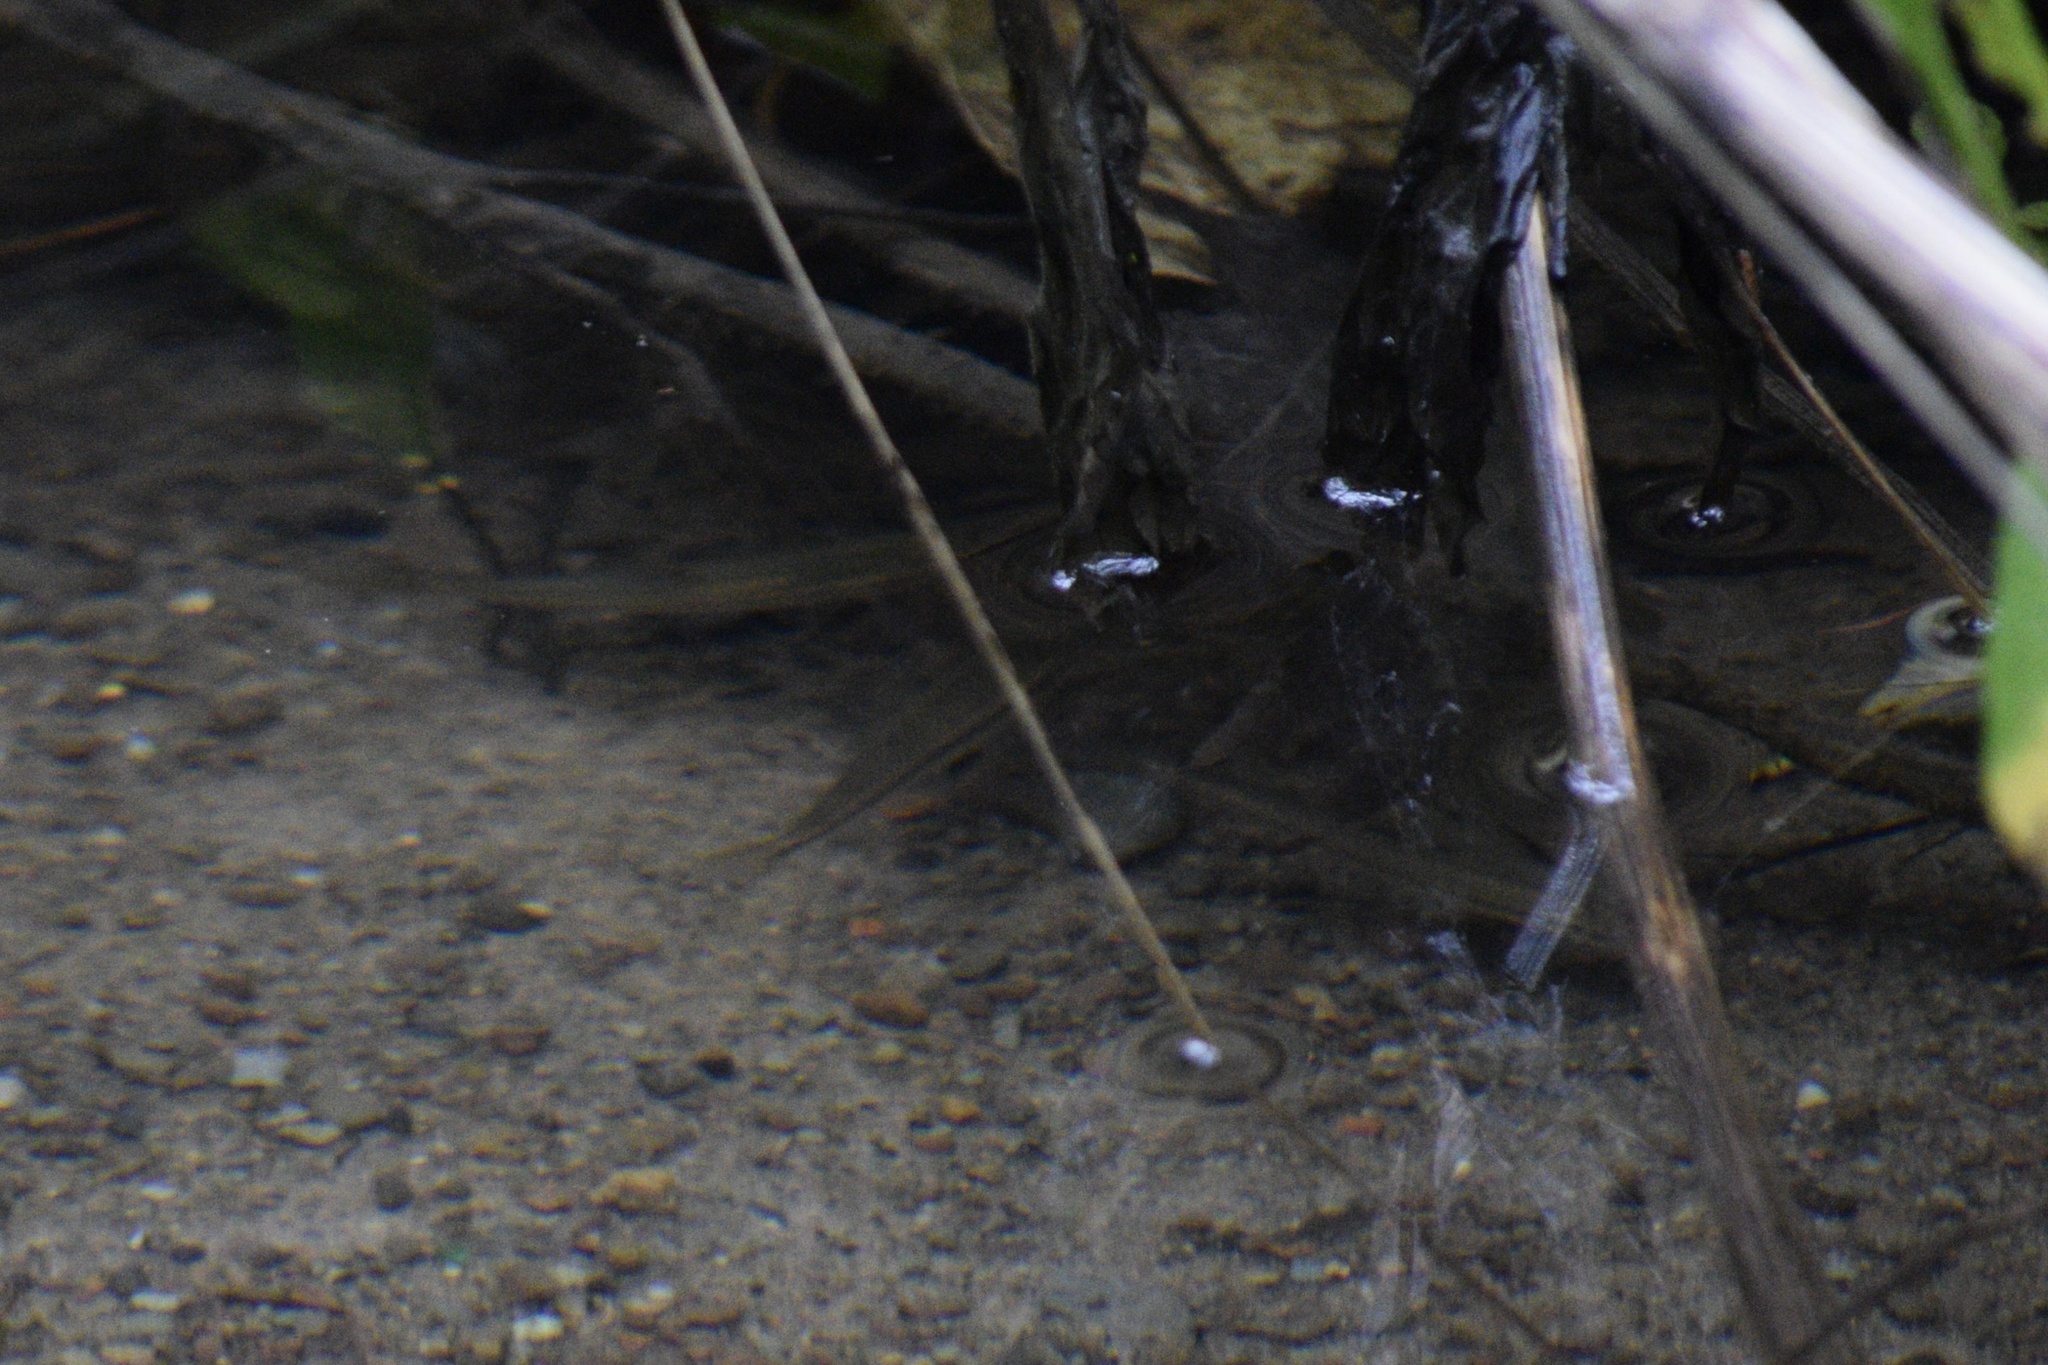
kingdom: Animalia
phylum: Arthropoda
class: Insecta
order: Hemiptera
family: Gerridae
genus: Aquarius
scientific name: Aquarius remigis
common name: Common water strider
